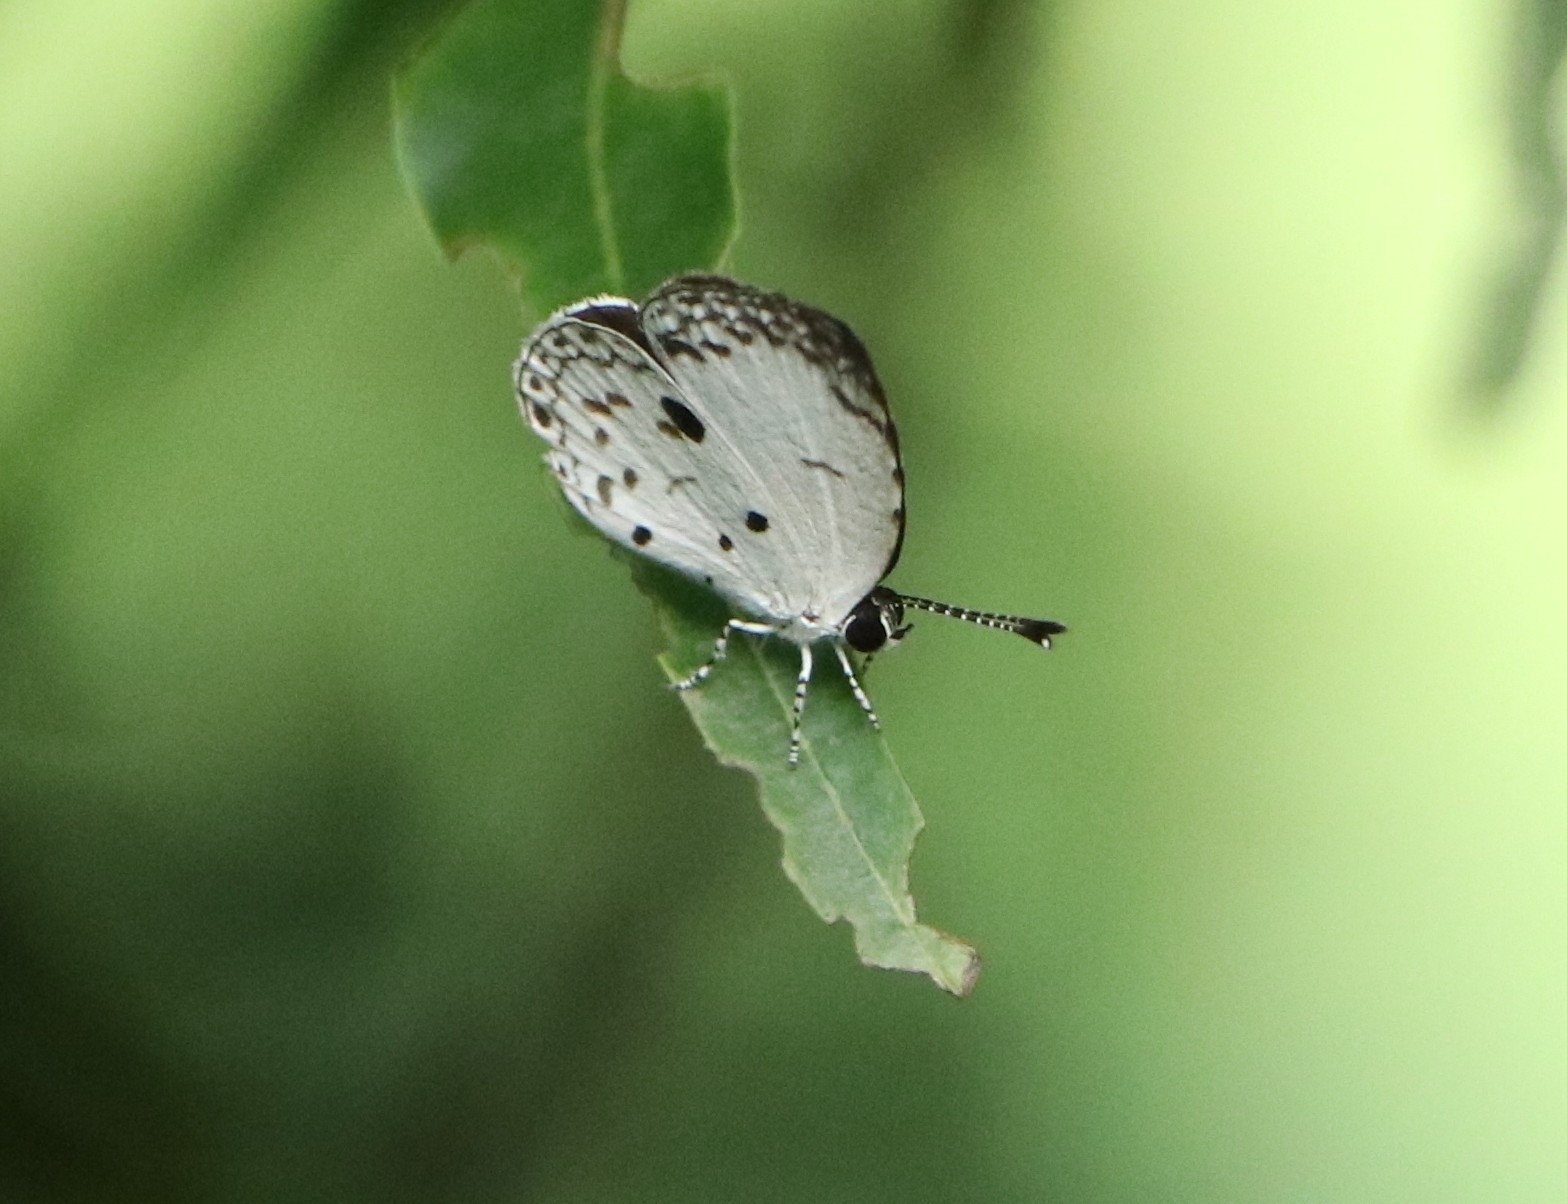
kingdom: Animalia
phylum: Arthropoda
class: Insecta
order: Lepidoptera
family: Lycaenidae
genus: Neopithecops
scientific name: Neopithecops zalmora
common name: Quaker
